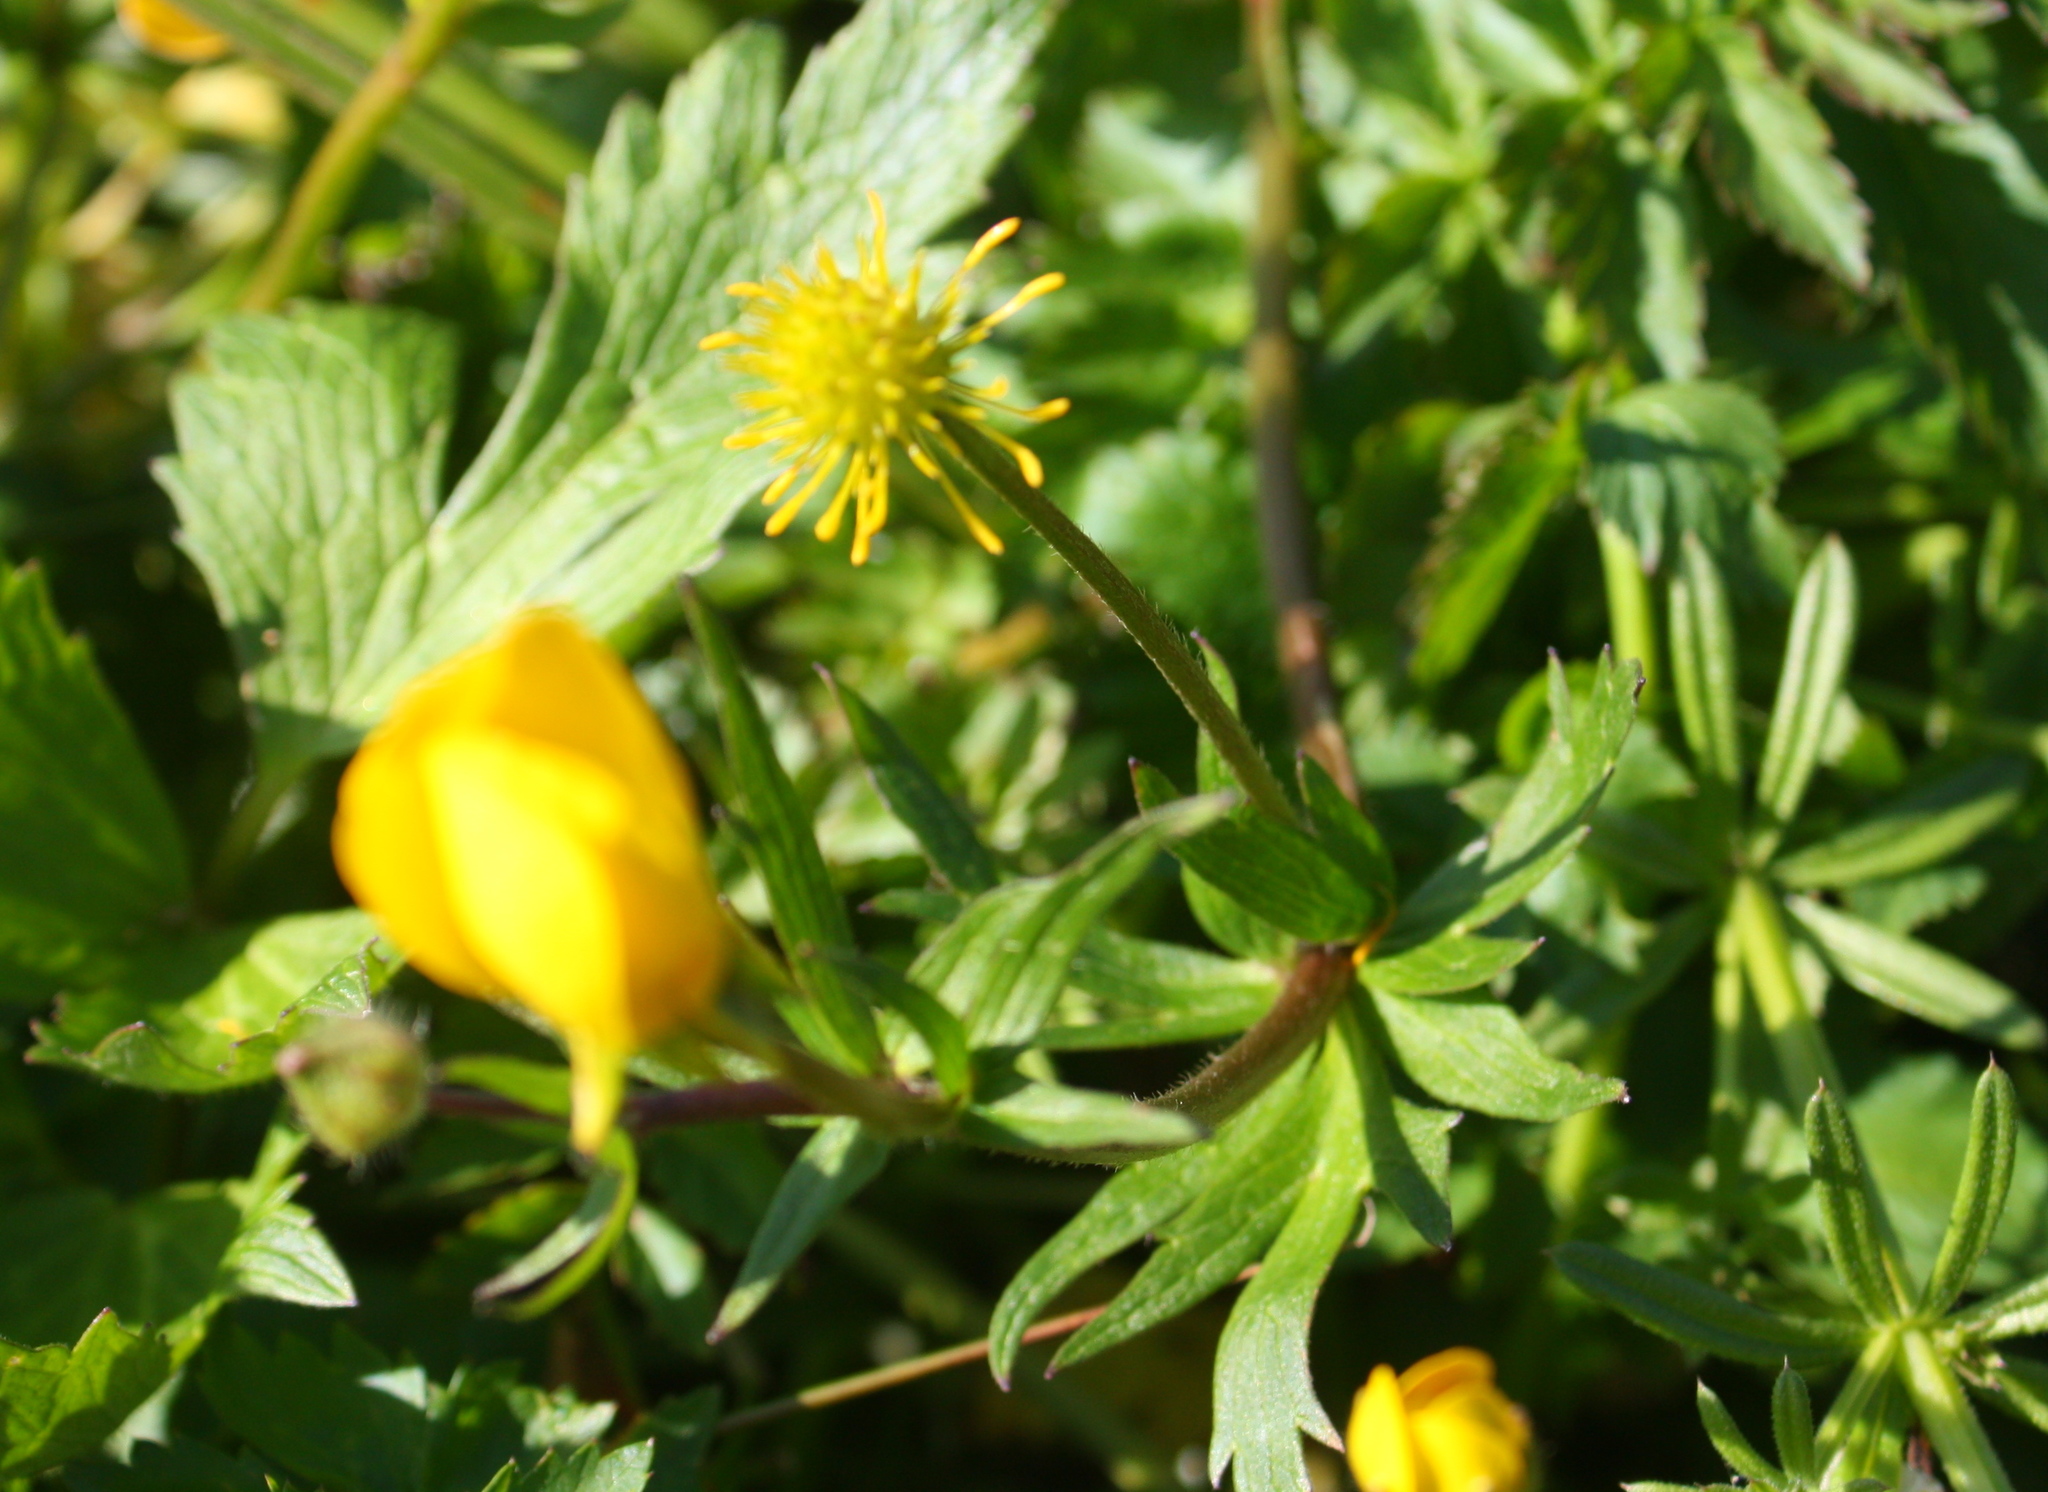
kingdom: Plantae
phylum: Tracheophyta
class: Magnoliopsida
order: Ranunculales
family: Ranunculaceae
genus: Ranunculus
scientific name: Ranunculus orthorhynchus
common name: Straight-beak buttercup
